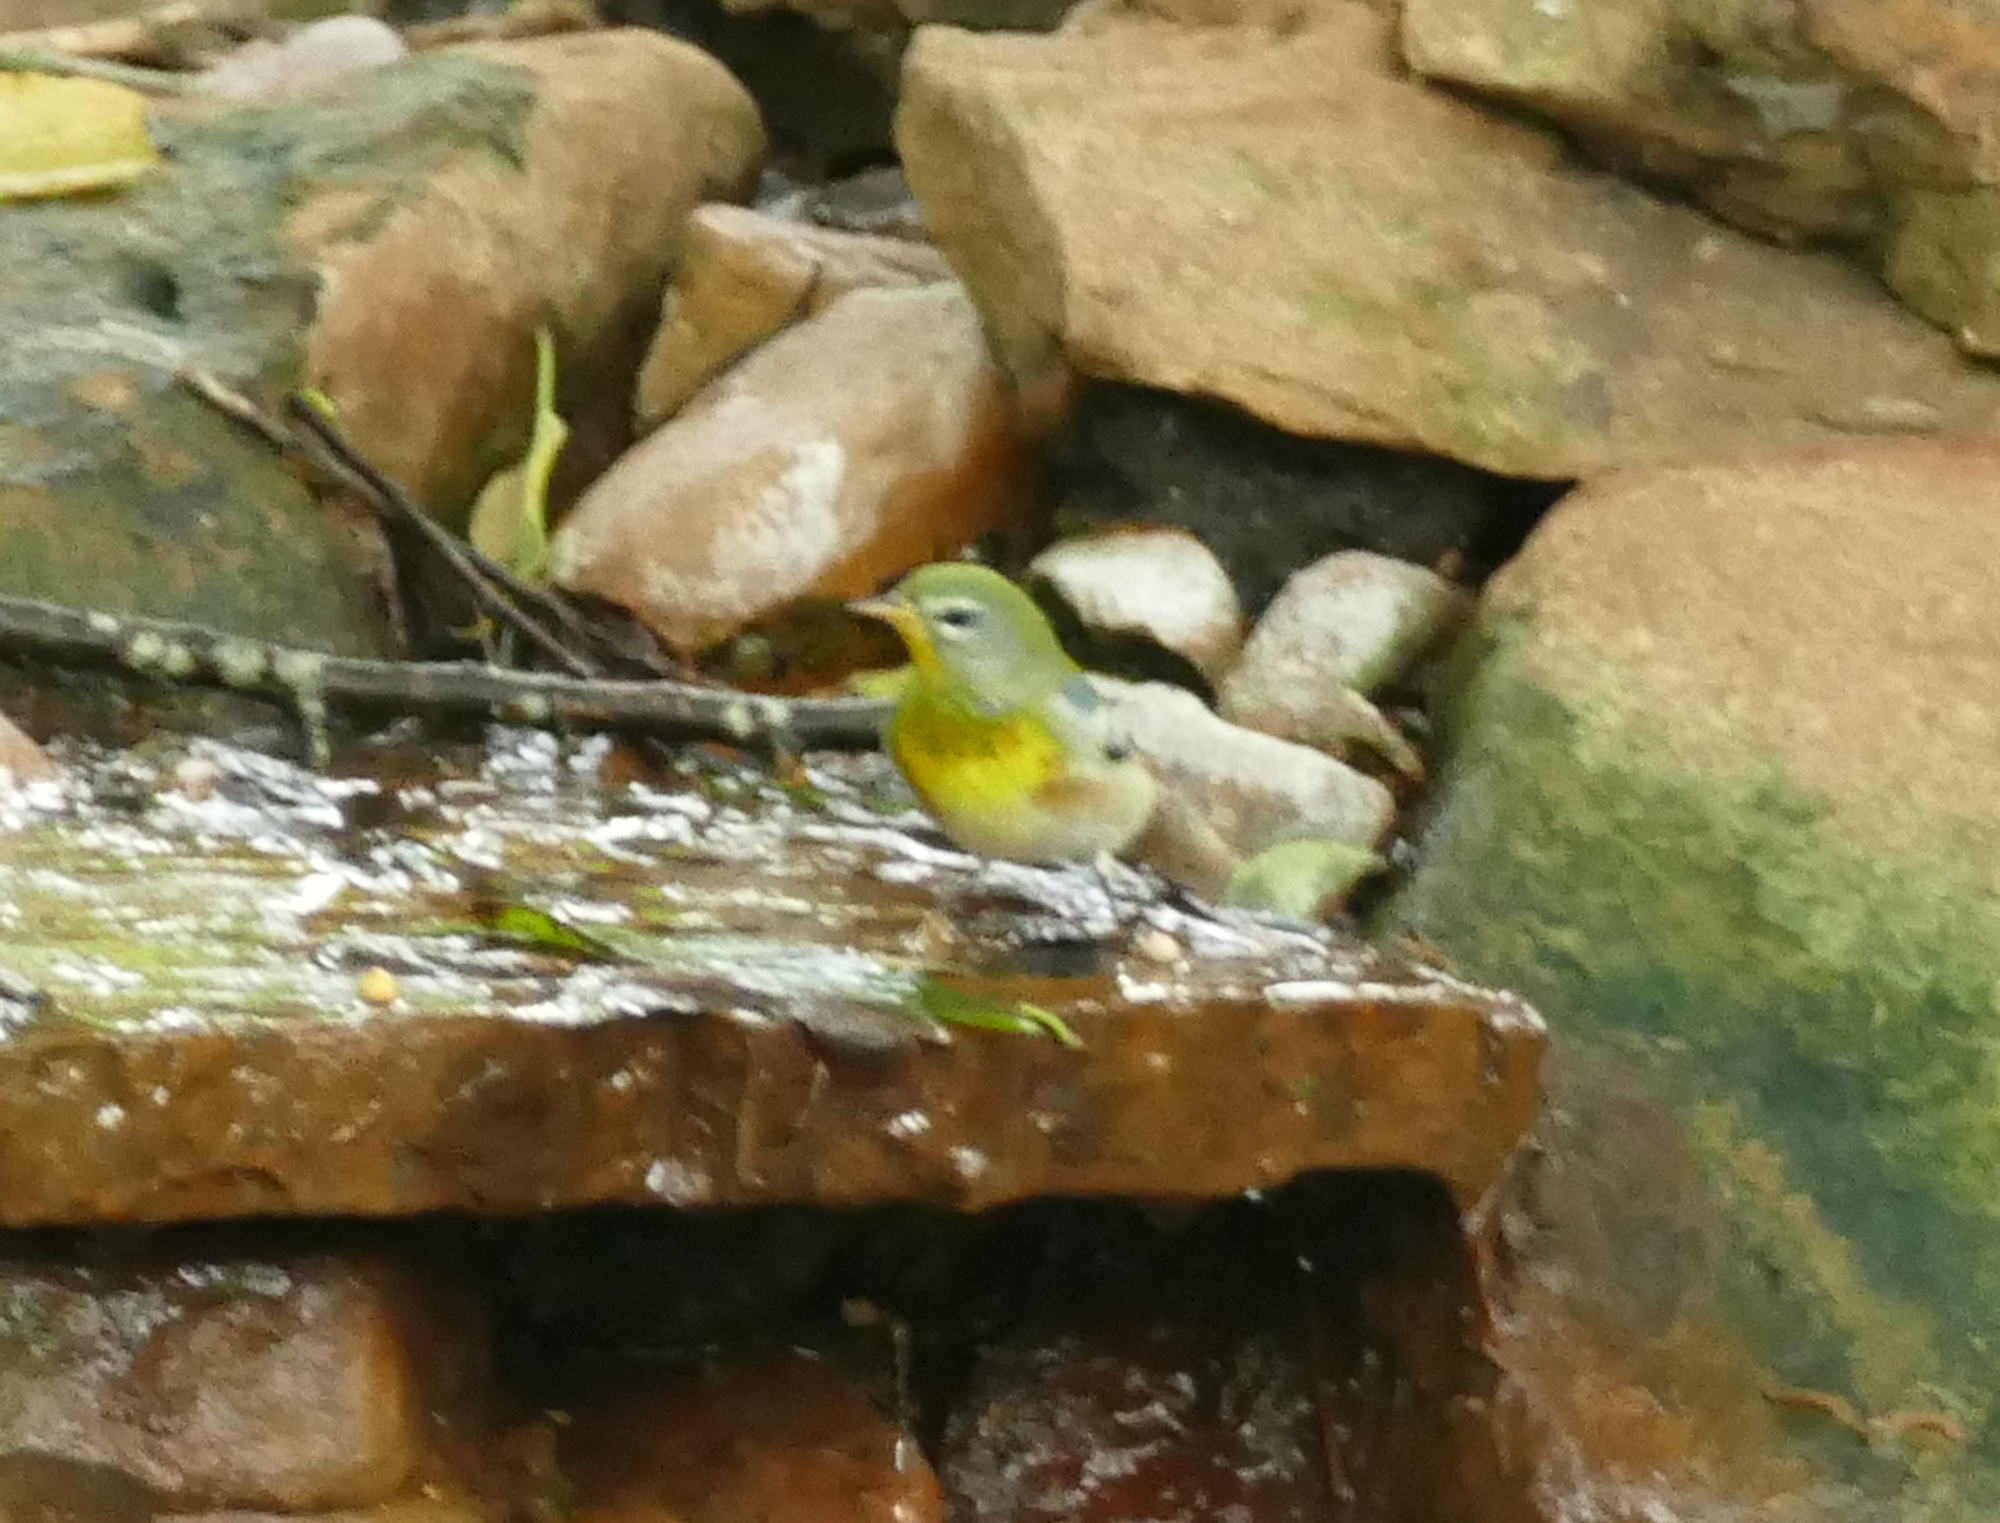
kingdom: Animalia
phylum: Chordata
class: Aves
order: Passeriformes
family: Parulidae
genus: Setophaga
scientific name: Setophaga americana
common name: Northern parula
